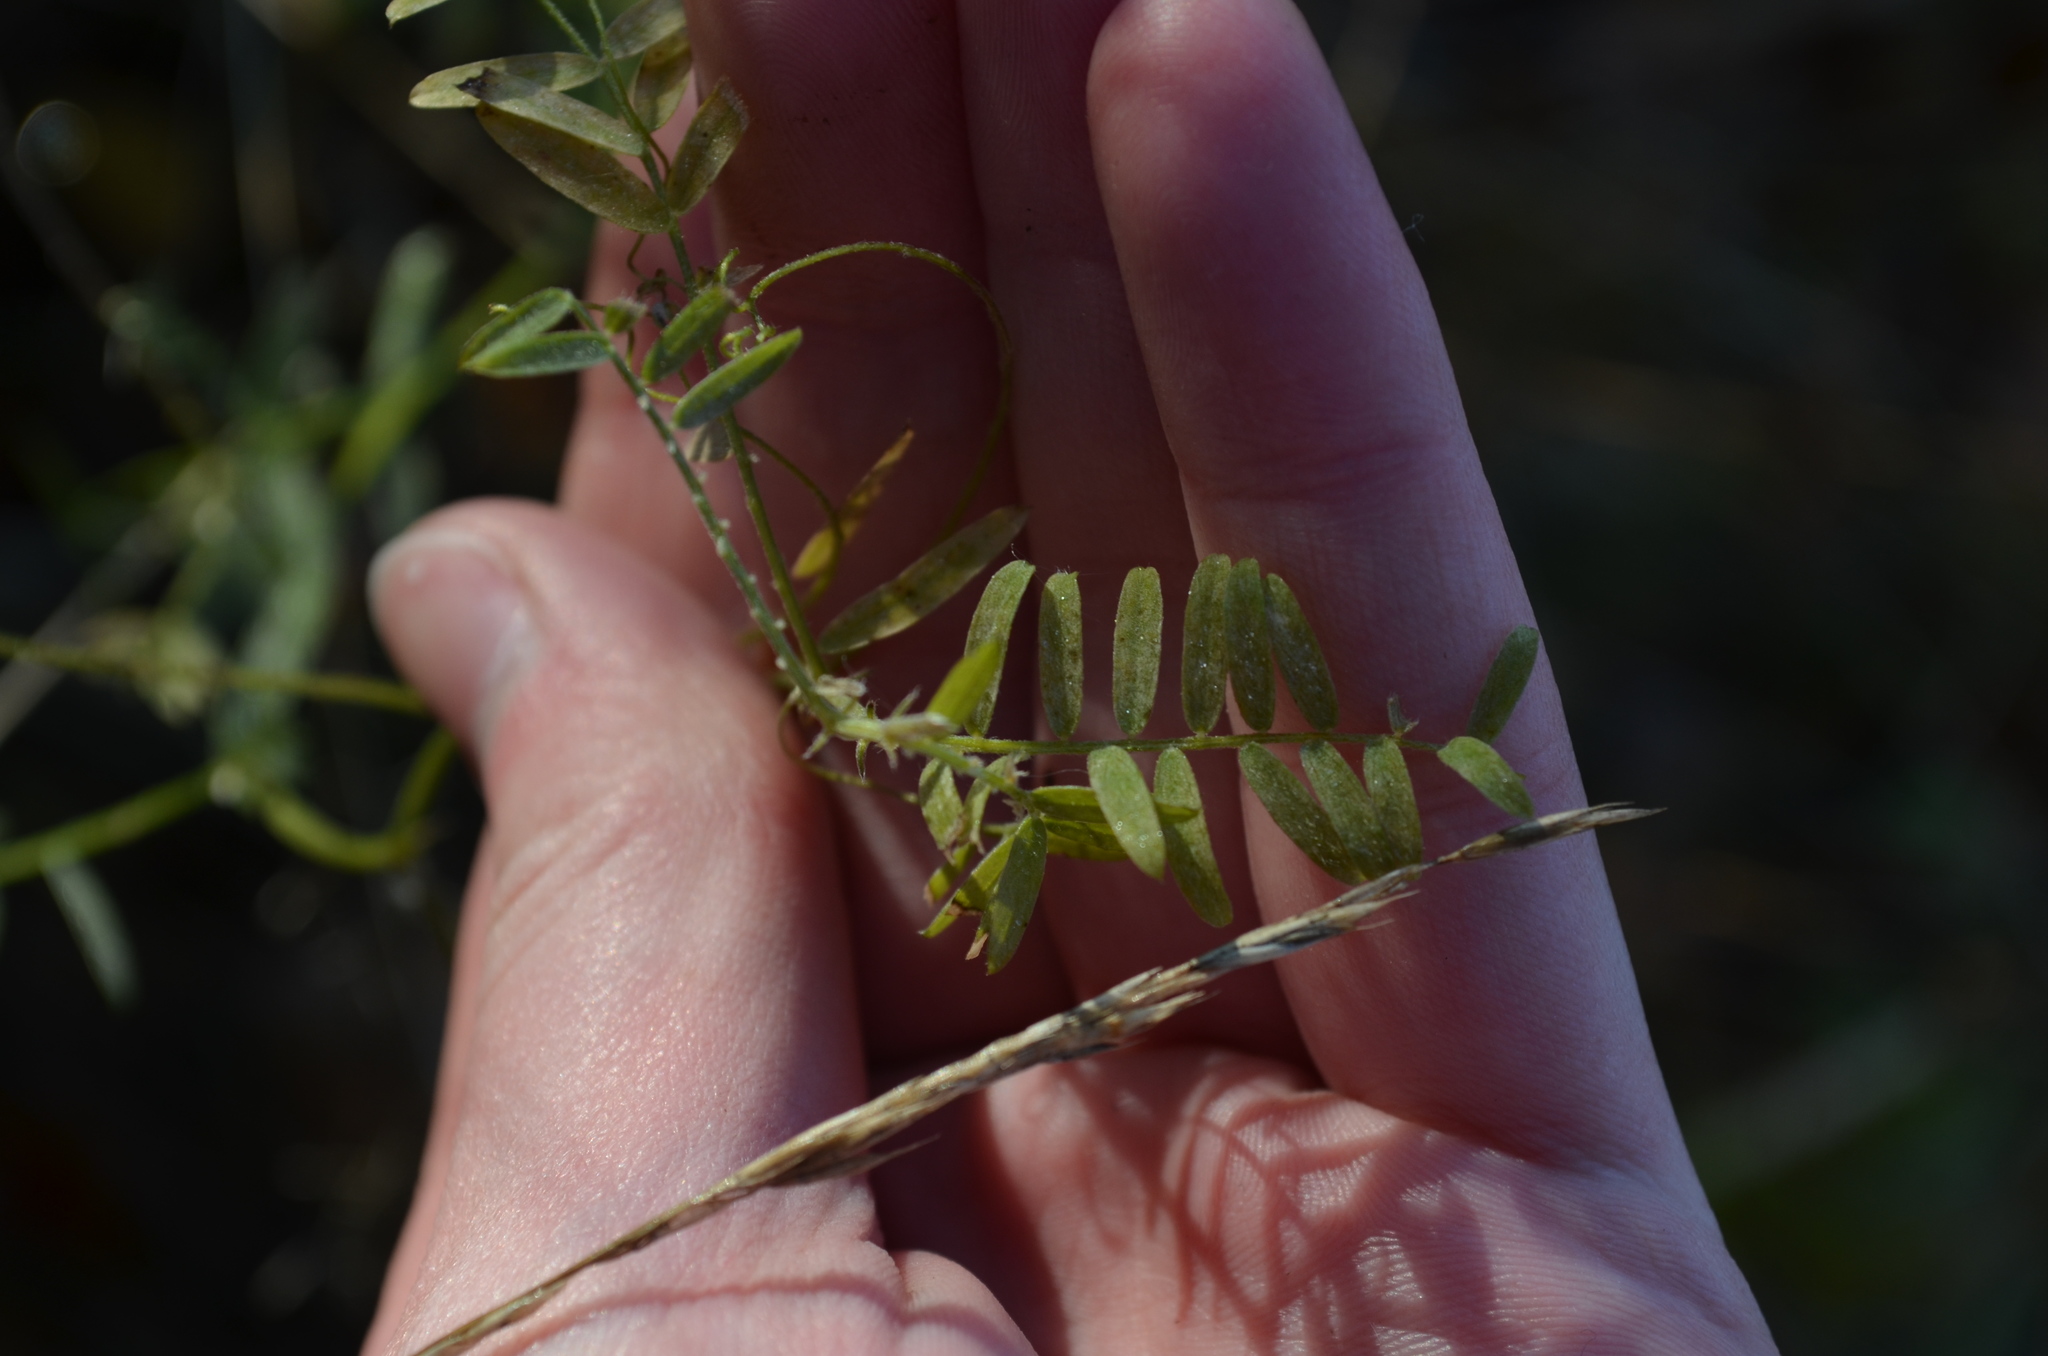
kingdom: Plantae
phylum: Tracheophyta
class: Magnoliopsida
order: Fabales
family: Fabaceae
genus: Vicia
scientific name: Vicia cracca
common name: Bird vetch
